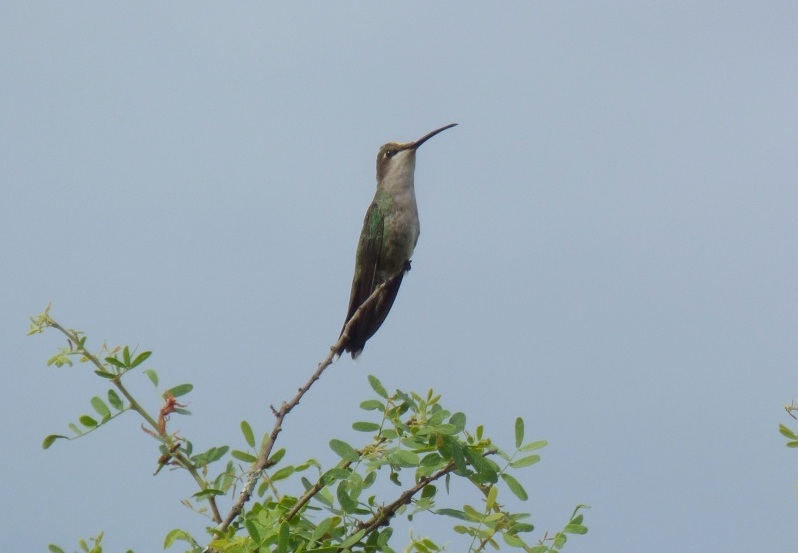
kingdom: Animalia
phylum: Chordata
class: Aves
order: Apodiformes
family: Trochilidae
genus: Heliomaster
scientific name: Heliomaster furcifer
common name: Blue-tufted starthroat
